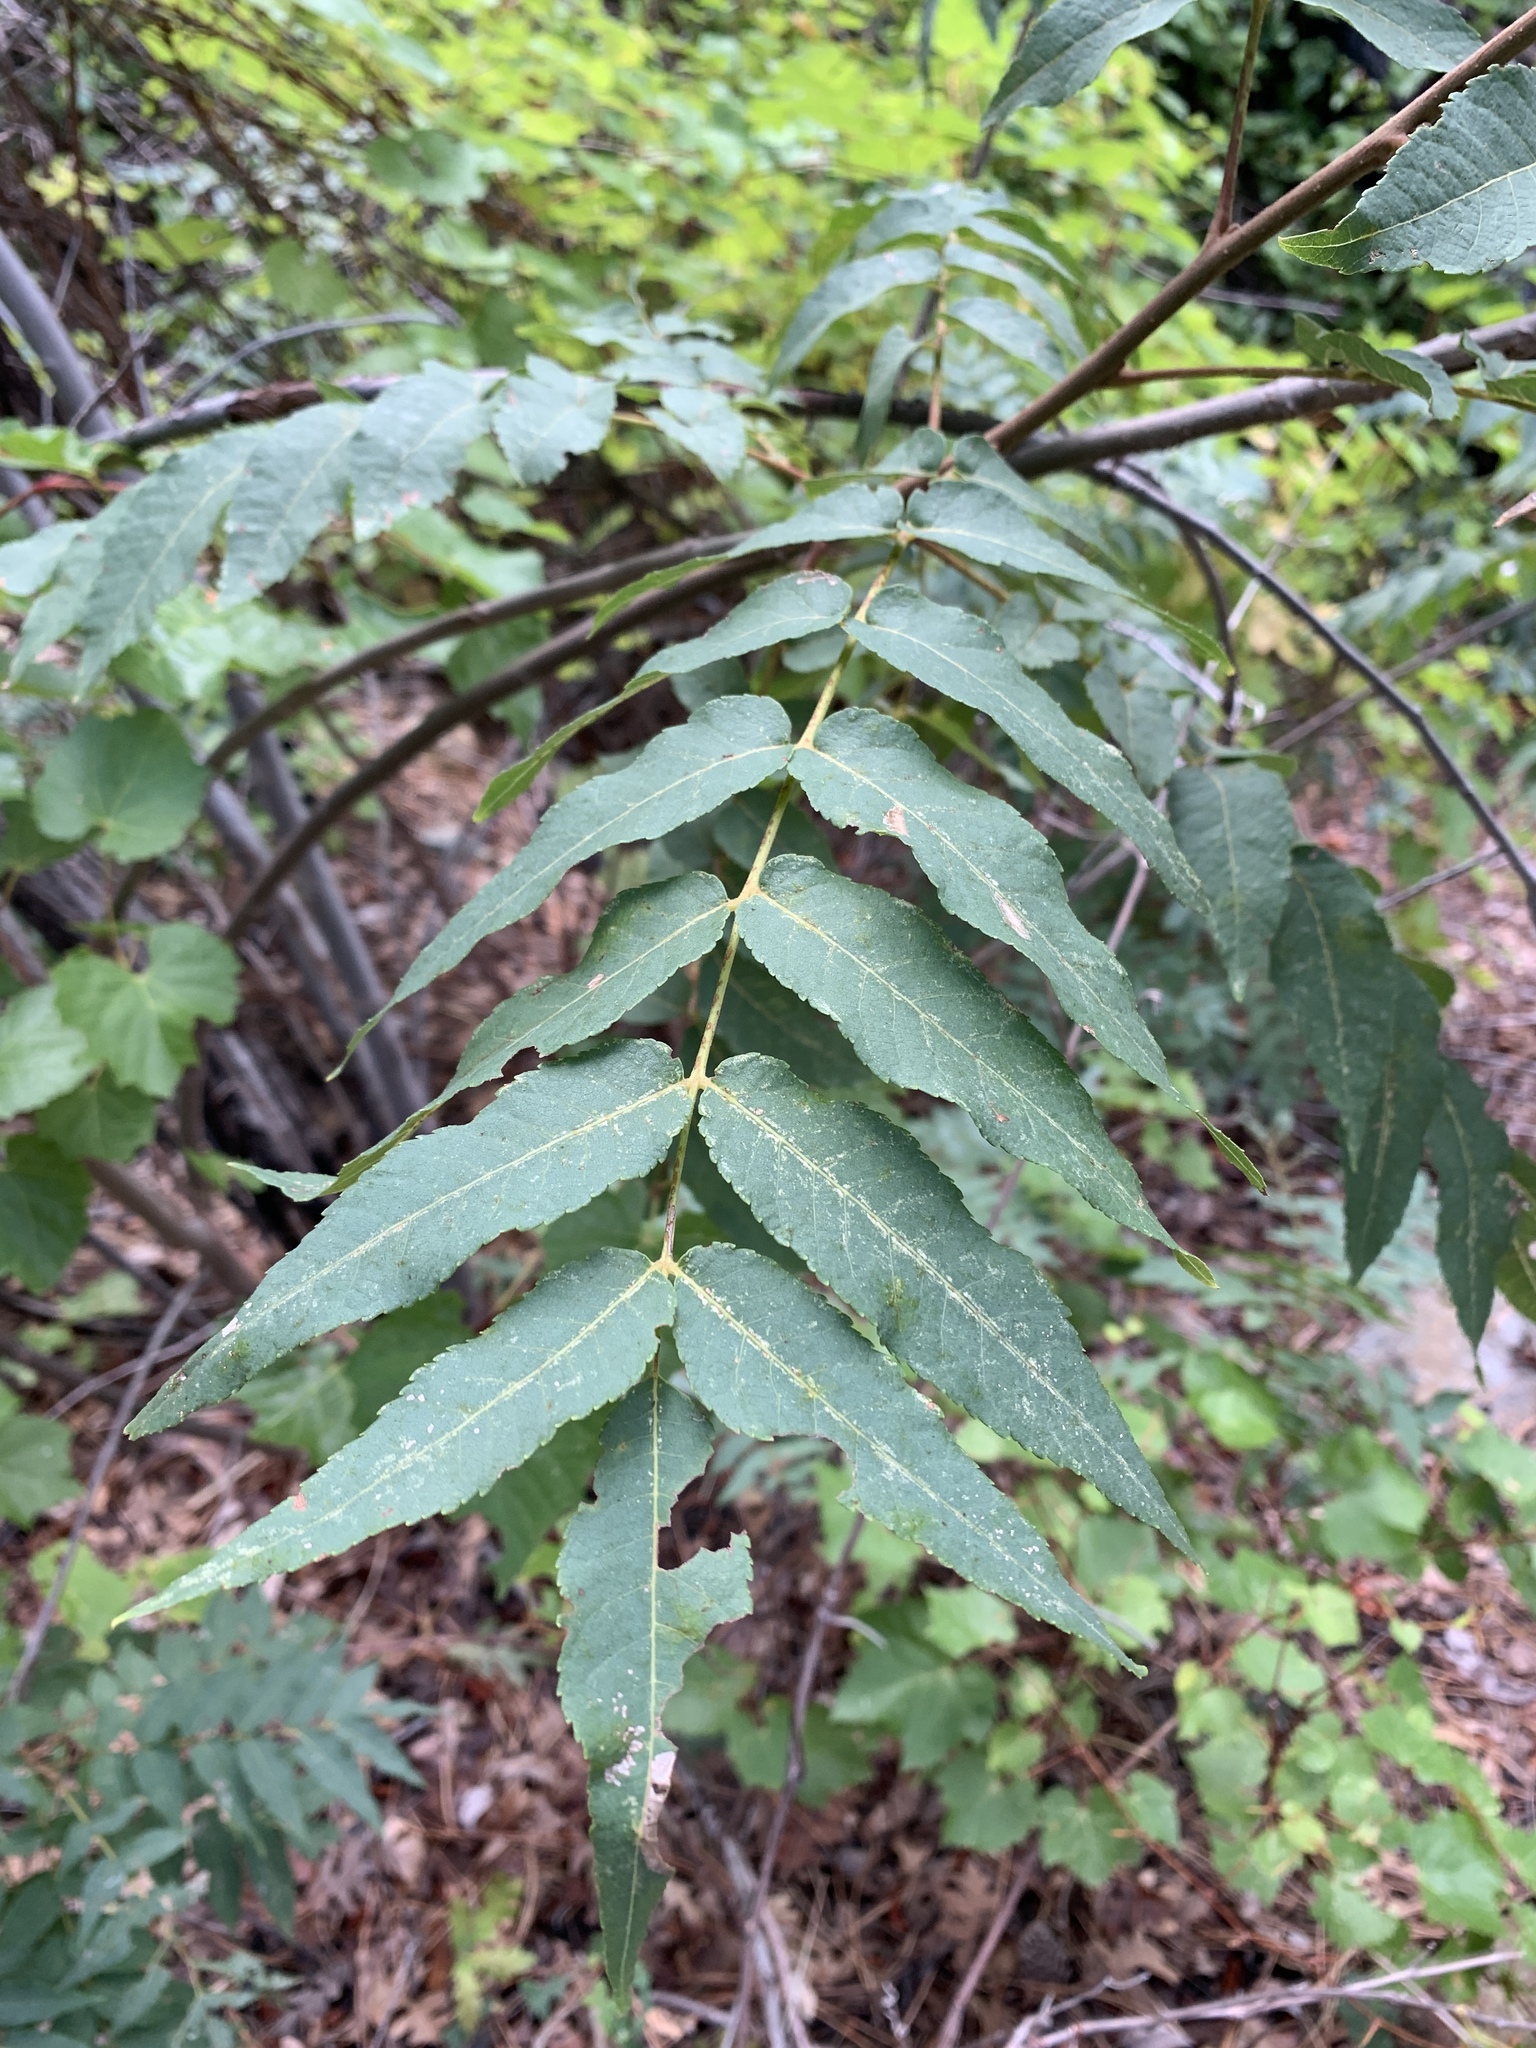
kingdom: Plantae
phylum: Tracheophyta
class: Magnoliopsida
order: Fagales
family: Juglandaceae
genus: Juglans
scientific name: Juglans major
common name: Arizona walnut
